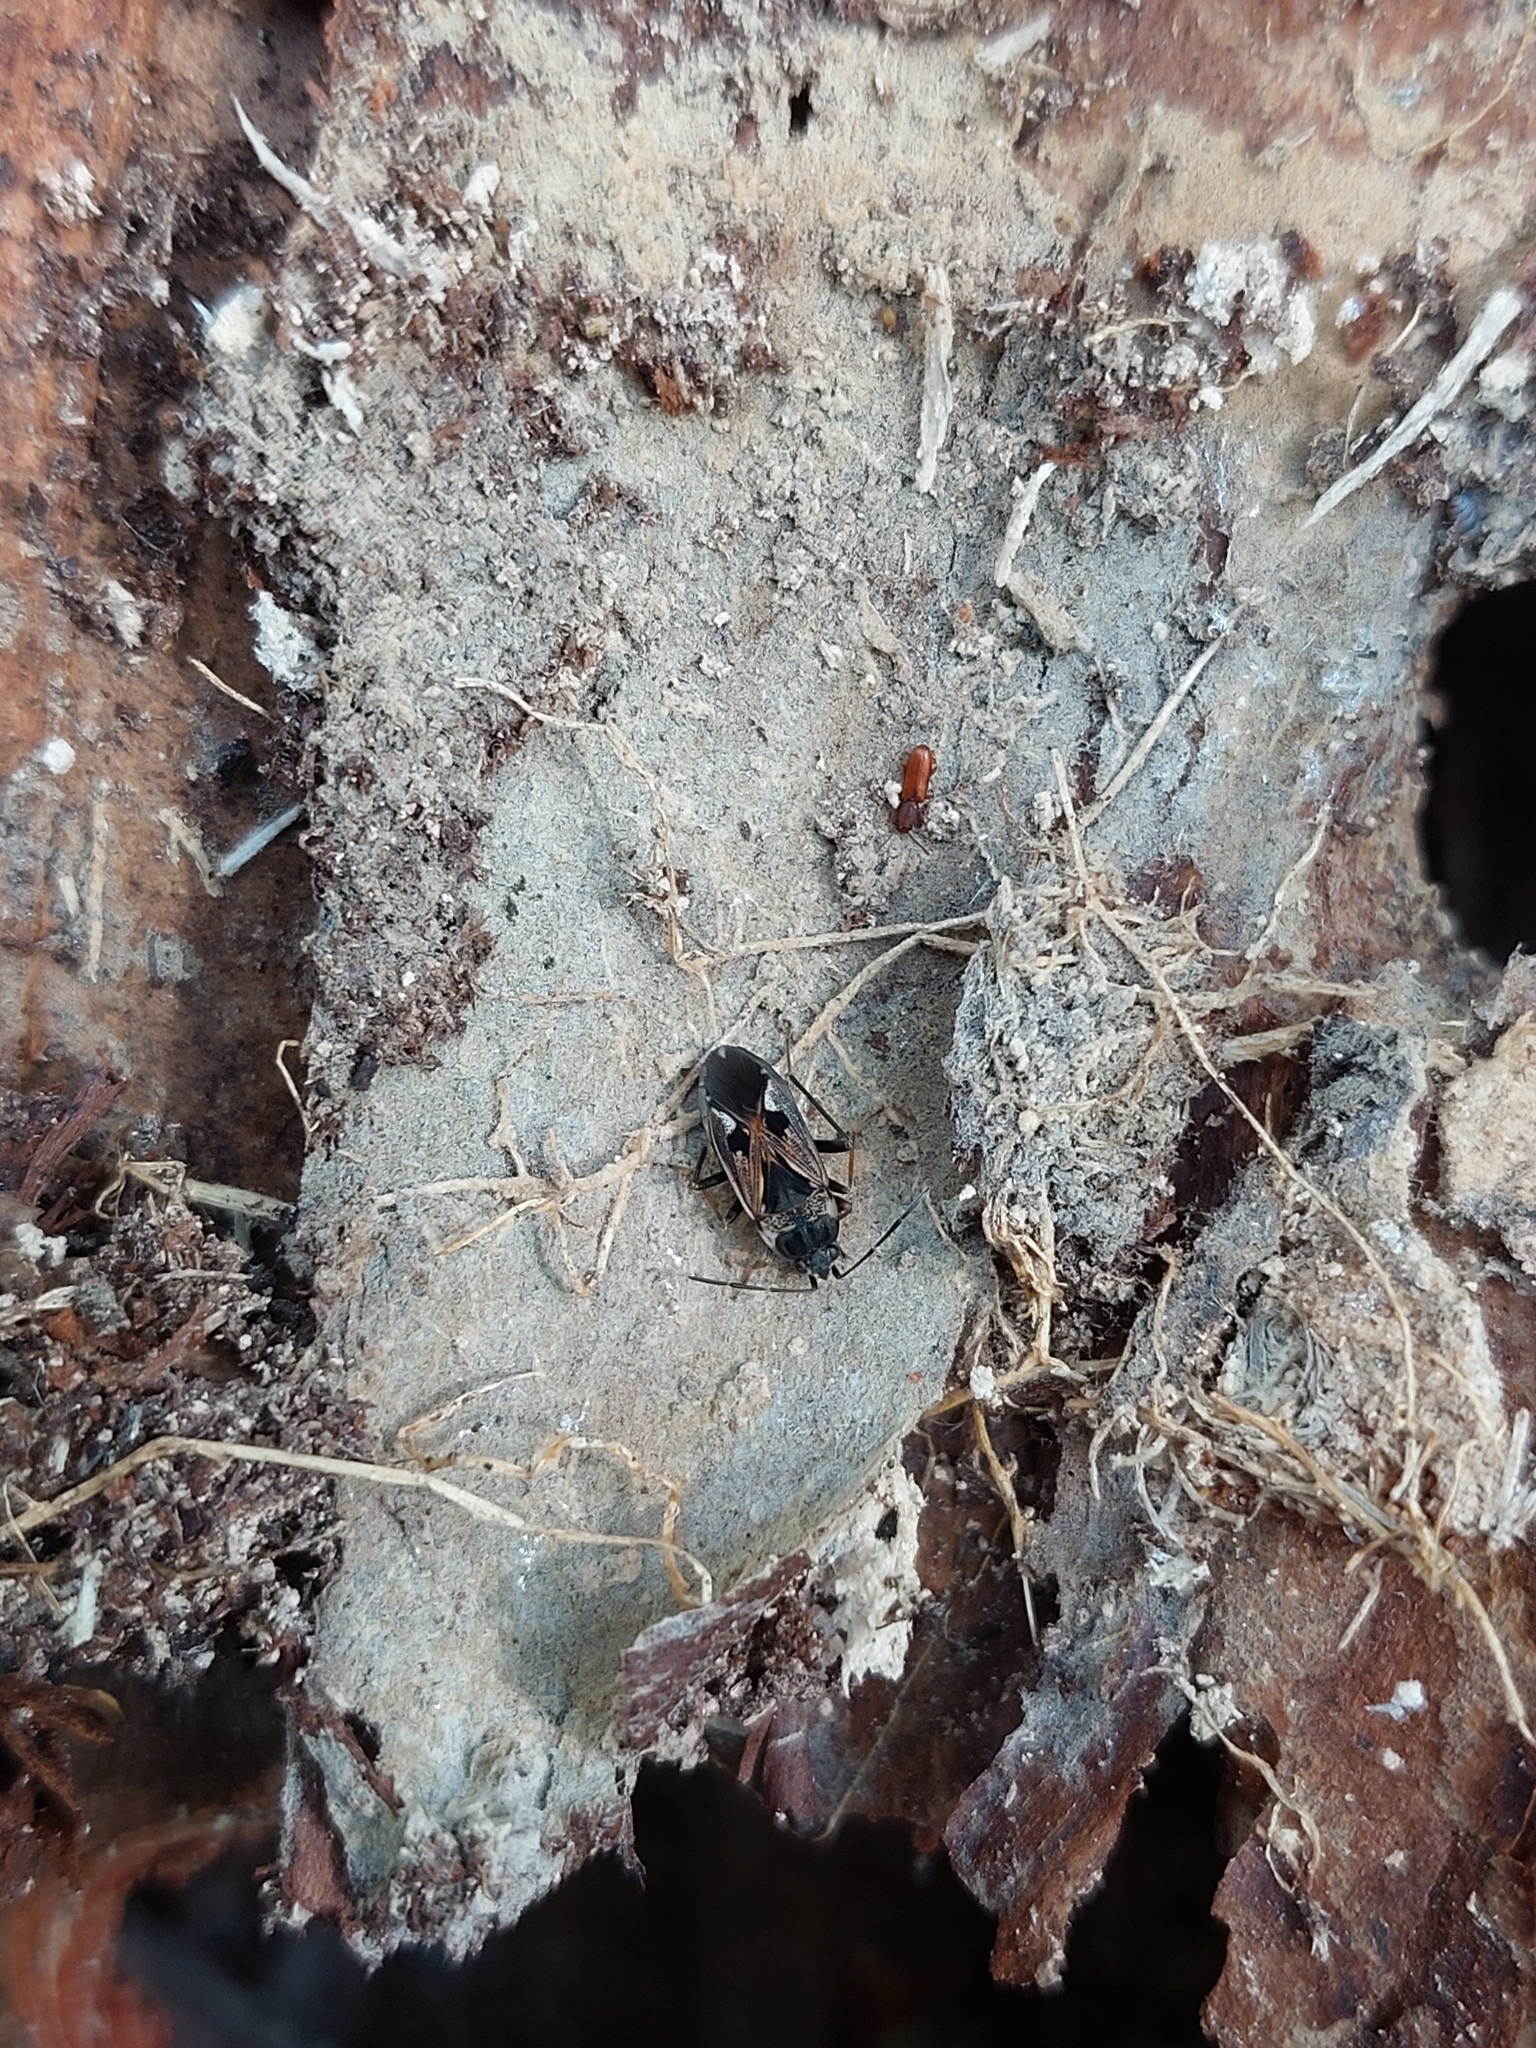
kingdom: Animalia
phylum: Arthropoda
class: Insecta
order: Hemiptera
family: Rhyparochromidae
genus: Rhyparochromus
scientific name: Rhyparochromus vulgaris
